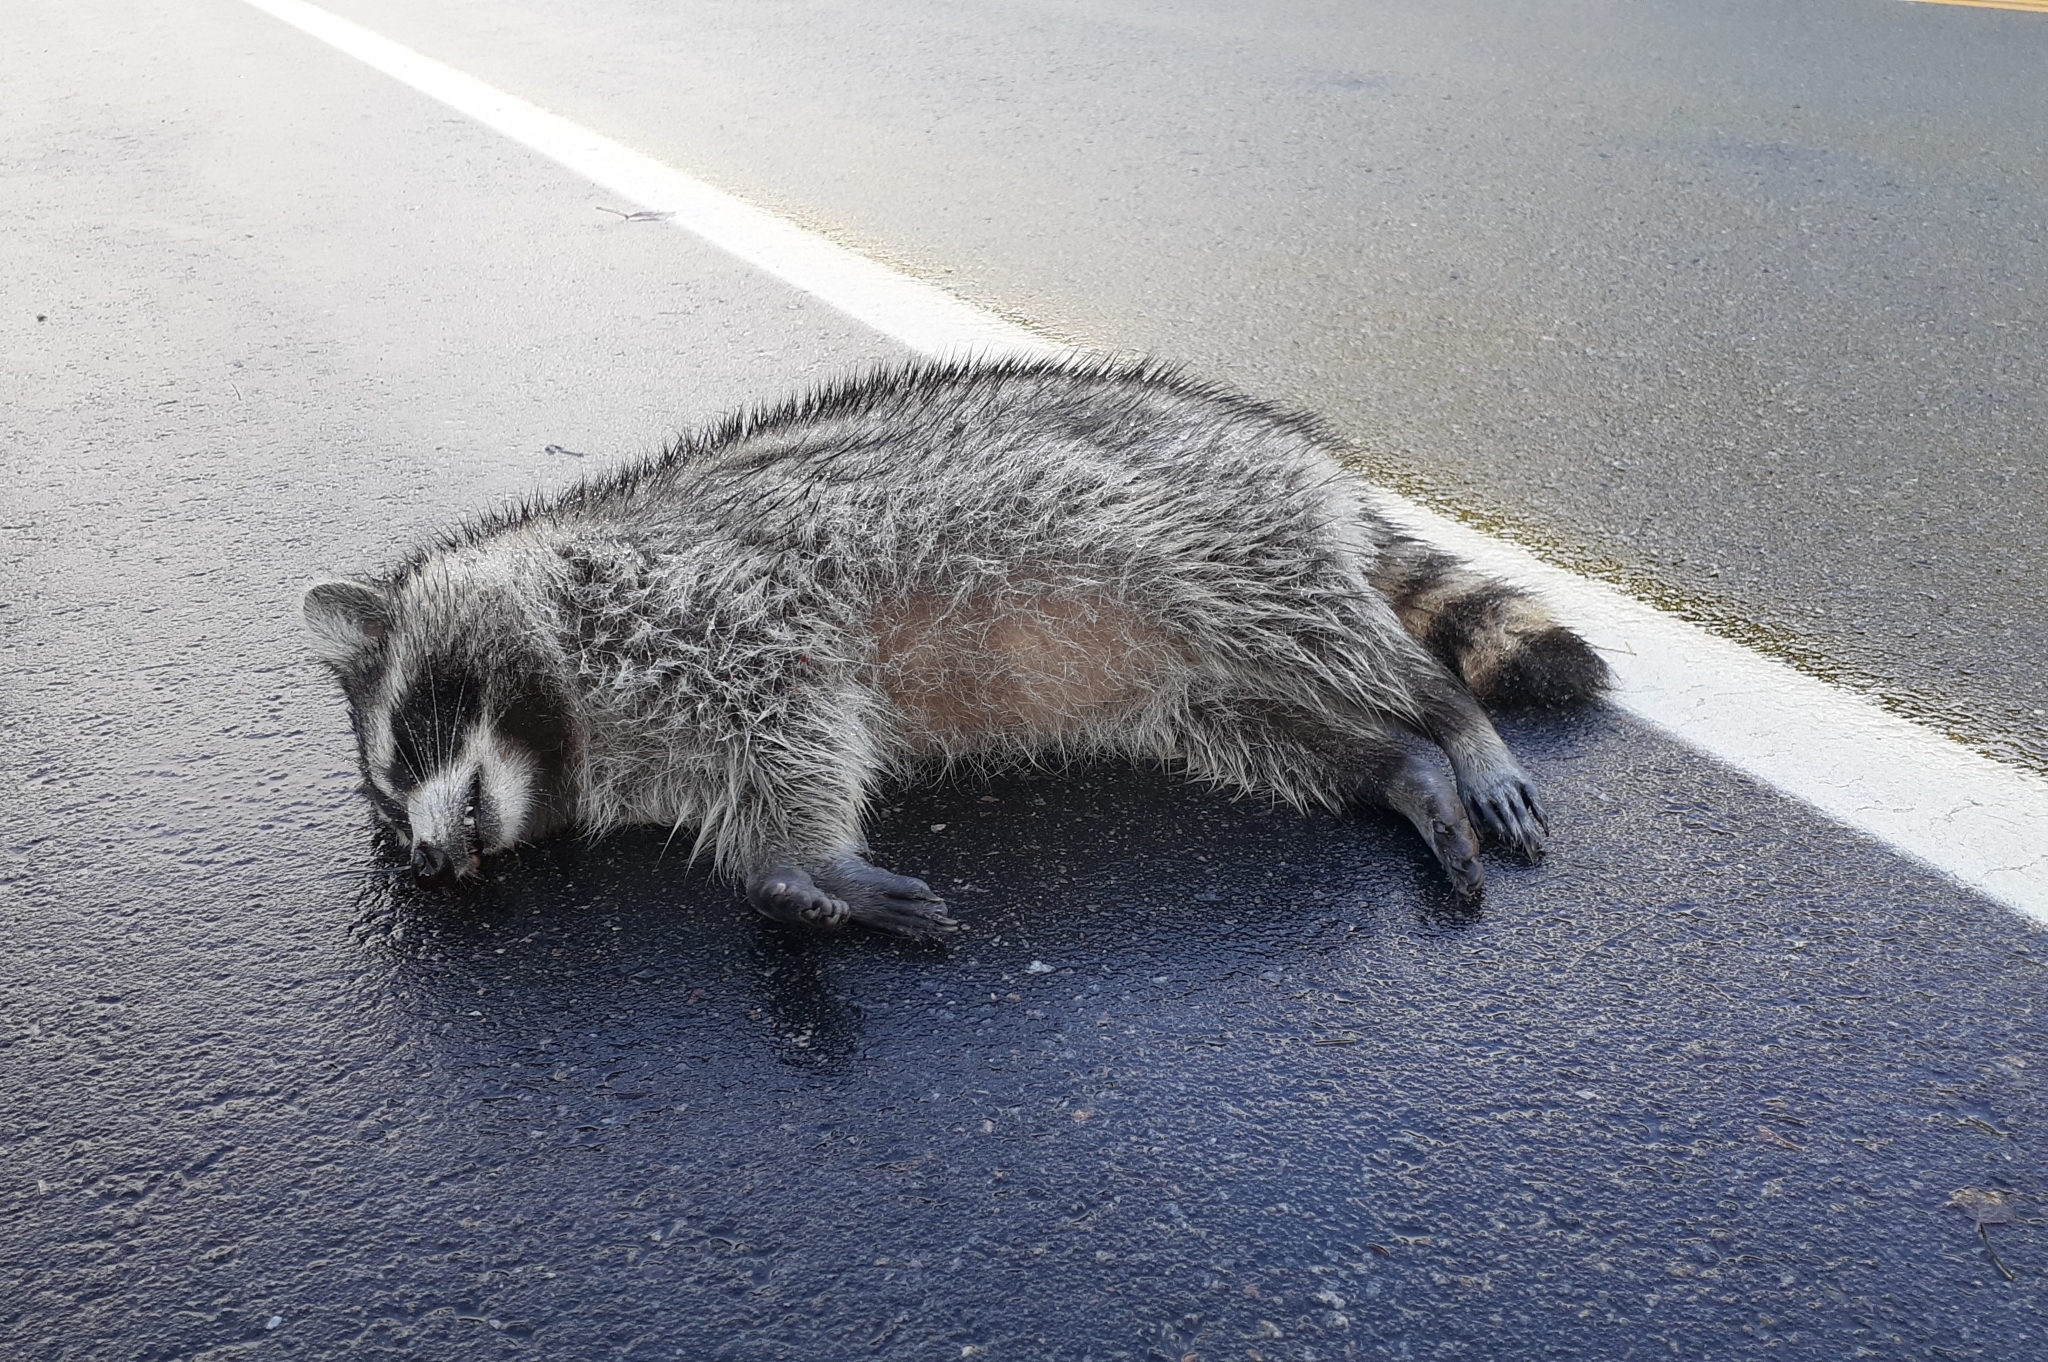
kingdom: Animalia
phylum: Chordata
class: Mammalia
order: Carnivora
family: Procyonidae
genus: Procyon
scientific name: Procyon lotor
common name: Raccoon
